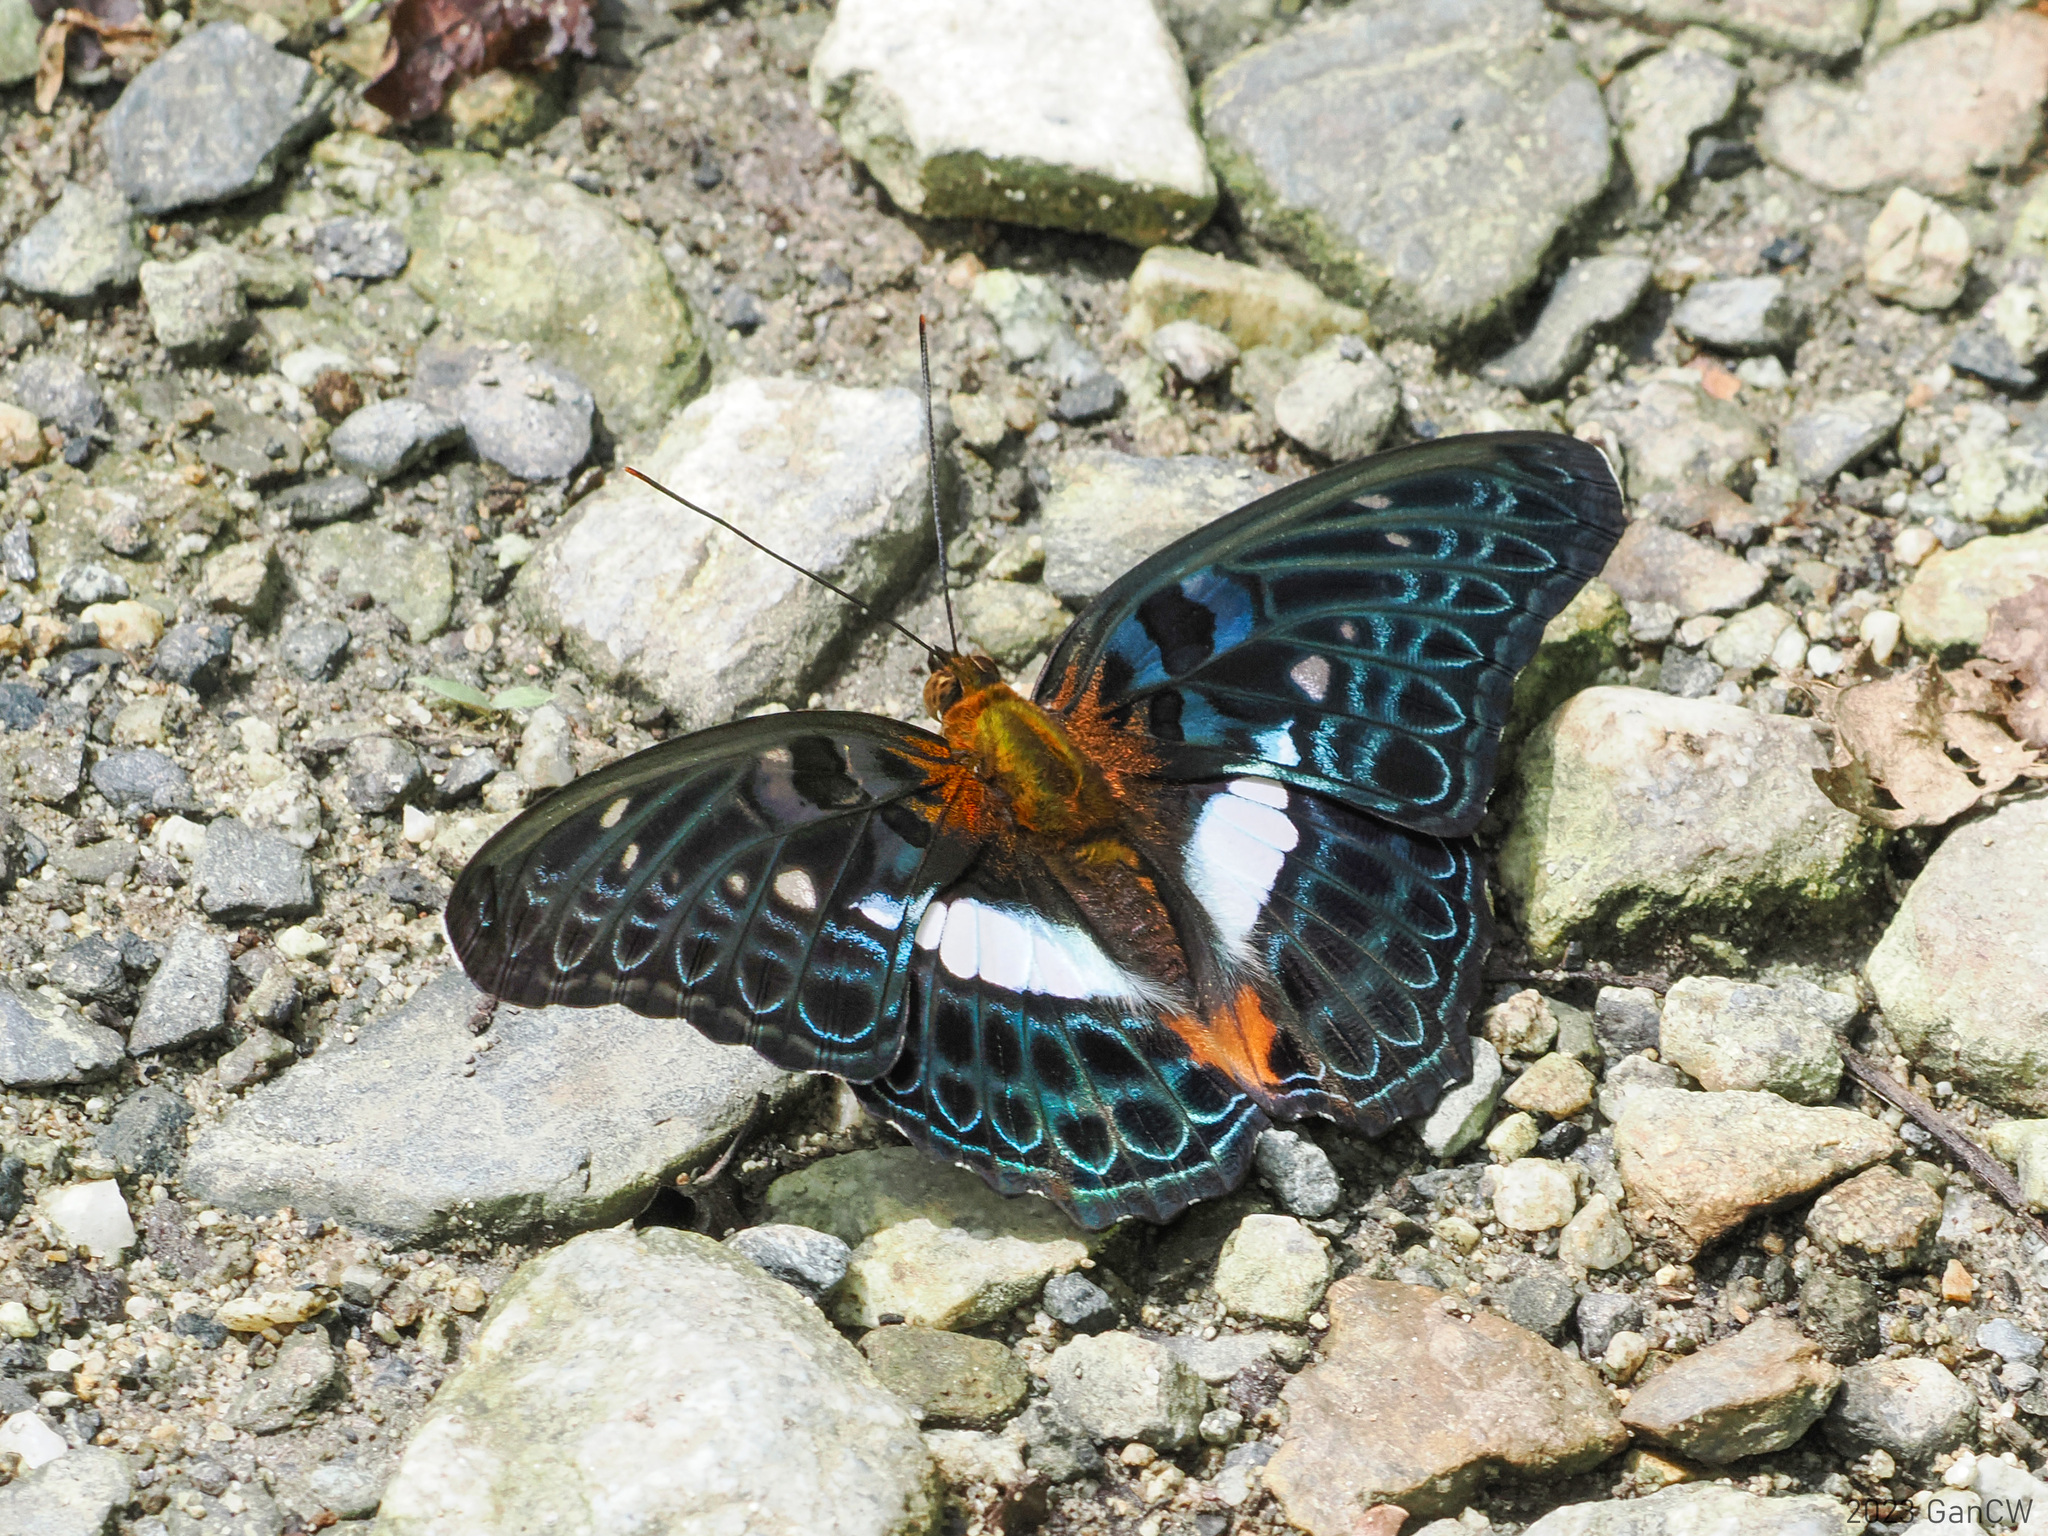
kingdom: Animalia
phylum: Arthropoda
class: Insecta
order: Lepidoptera
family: Nymphalidae
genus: Limenitis
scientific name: Limenitis
